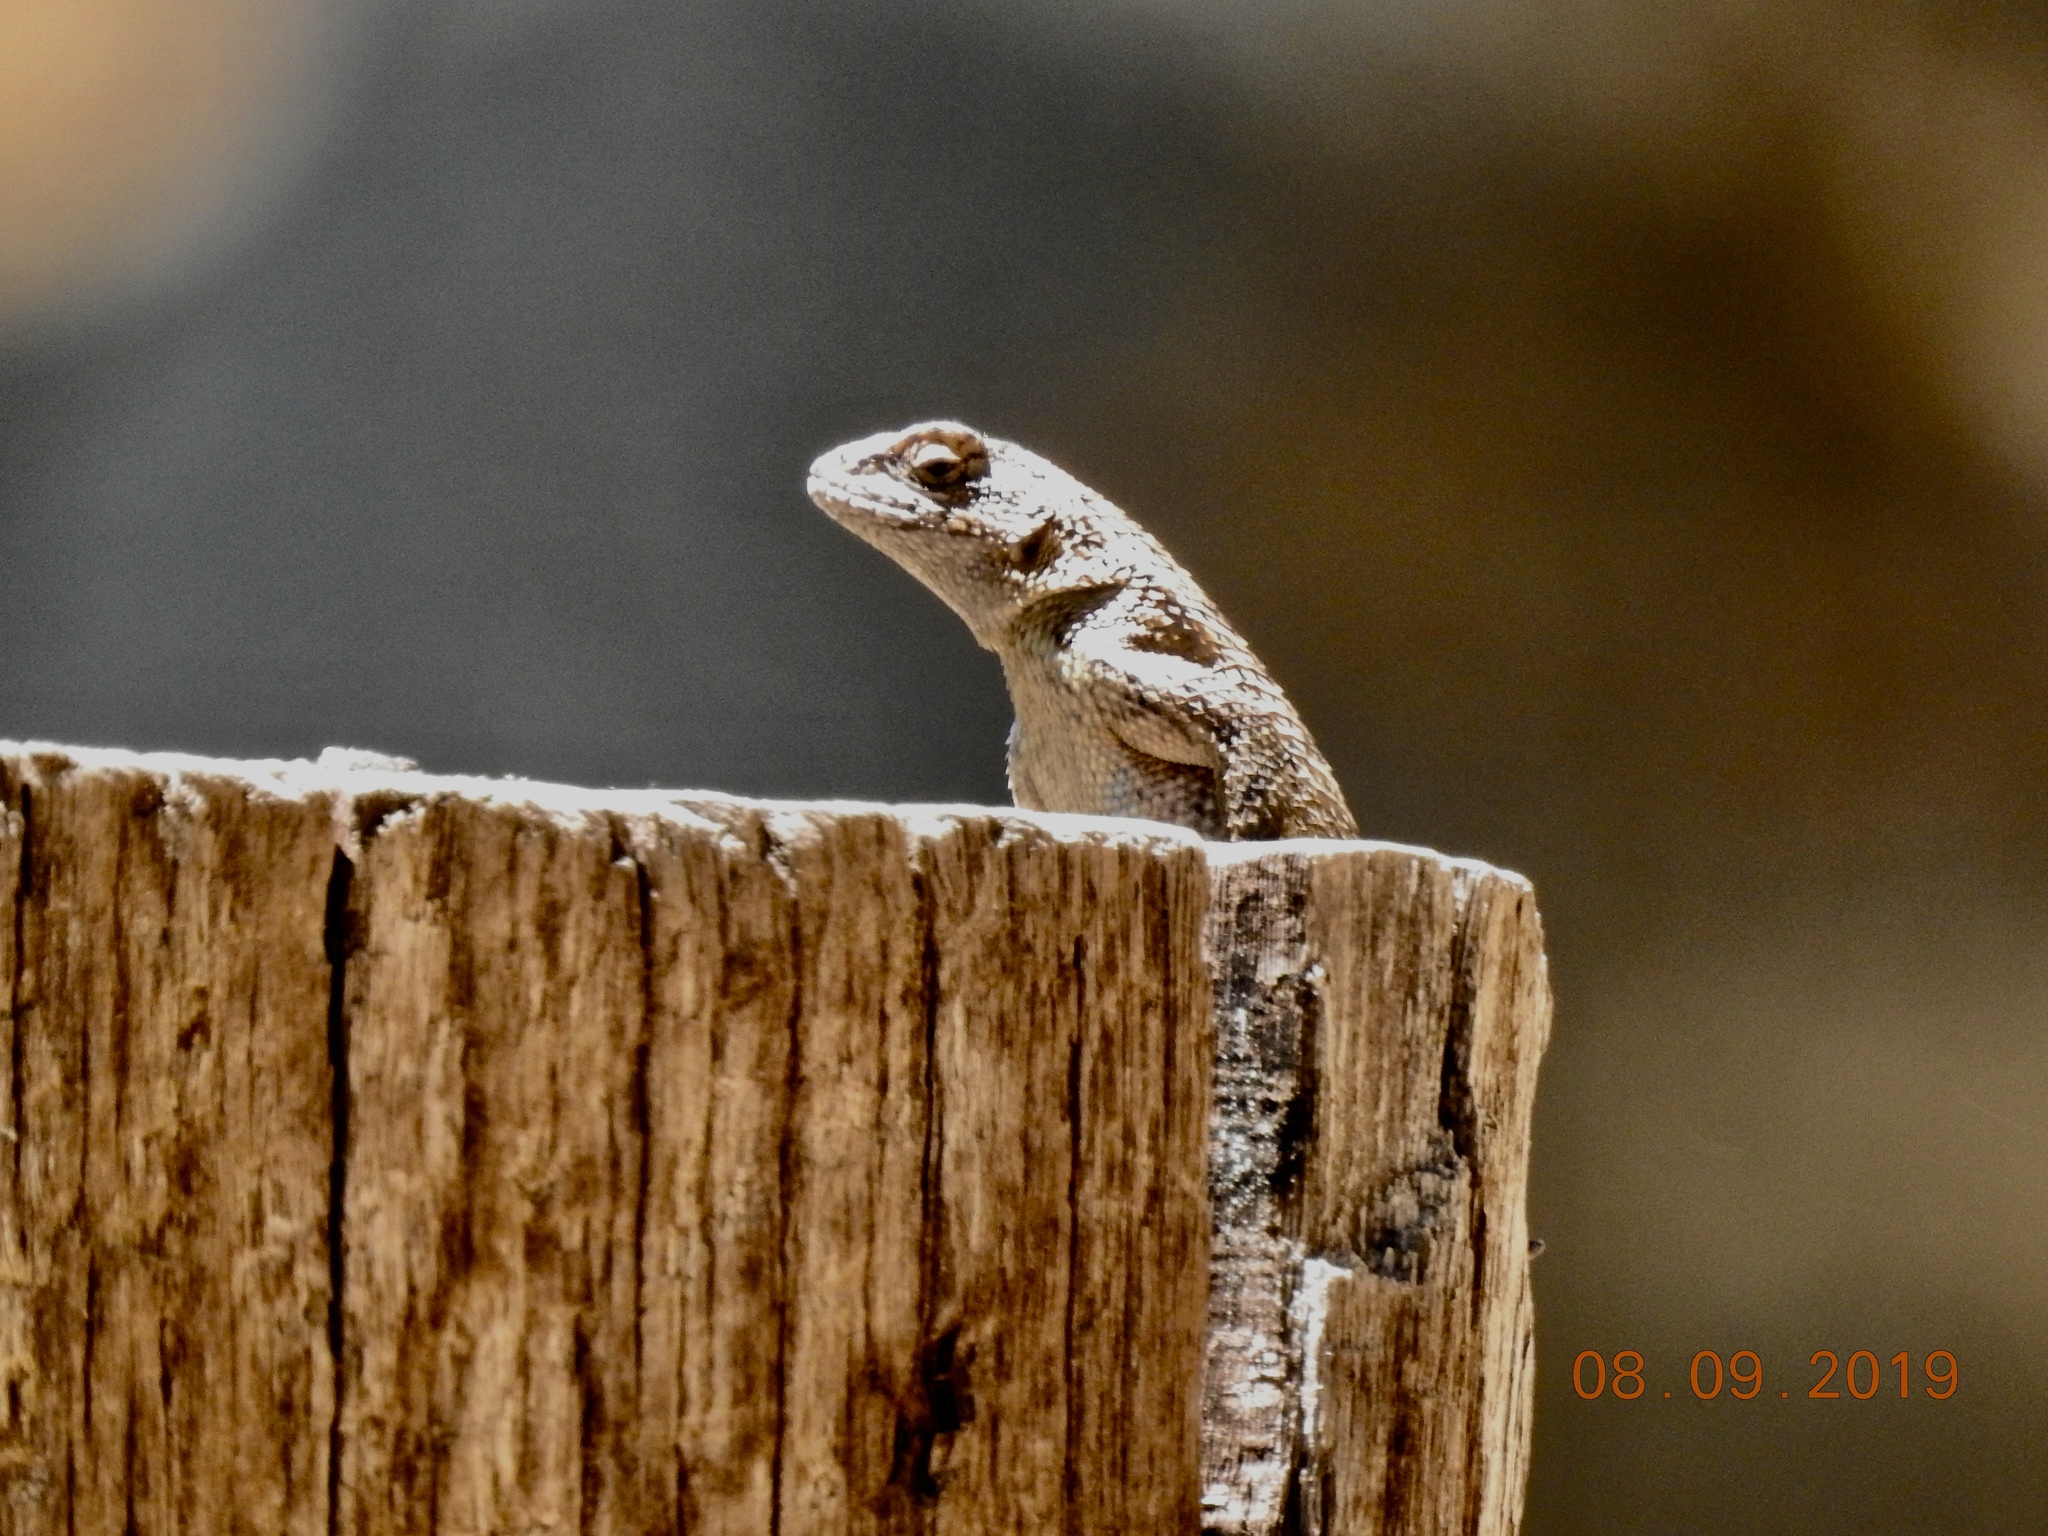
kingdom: Animalia
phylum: Chordata
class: Squamata
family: Phrynosomatidae
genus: Sceloporus
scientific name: Sceloporus occidentalis
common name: Western fence lizard
